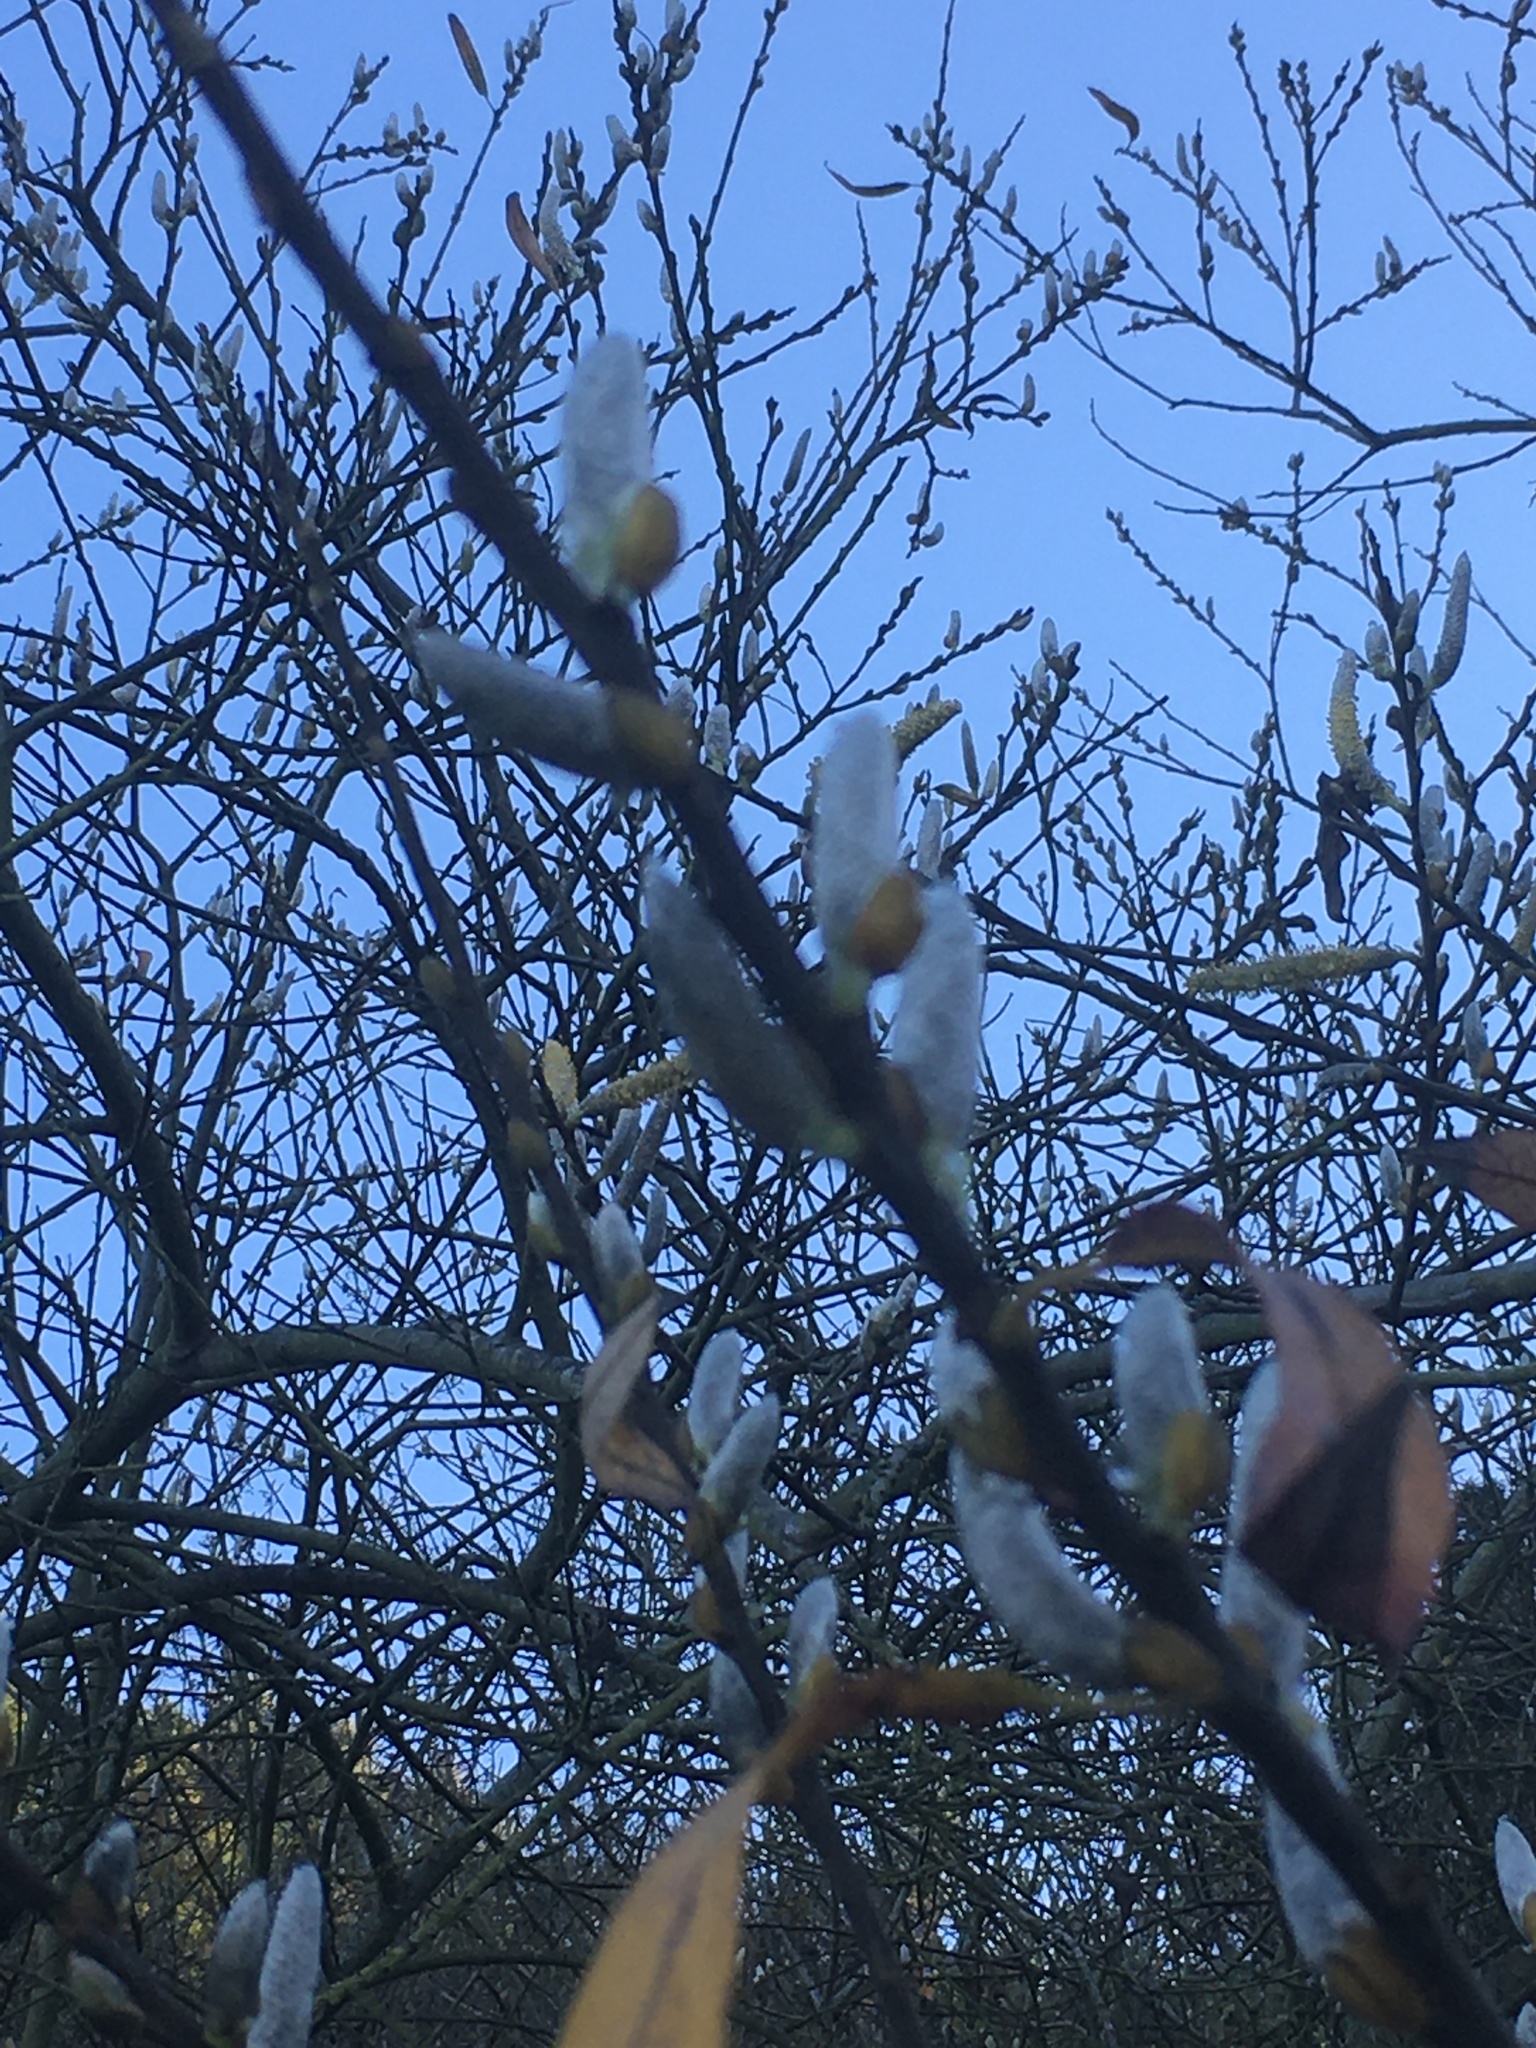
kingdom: Plantae
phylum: Tracheophyta
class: Magnoliopsida
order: Malpighiales
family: Salicaceae
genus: Salix
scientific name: Salix lasiolepis
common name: Arroyo willow
